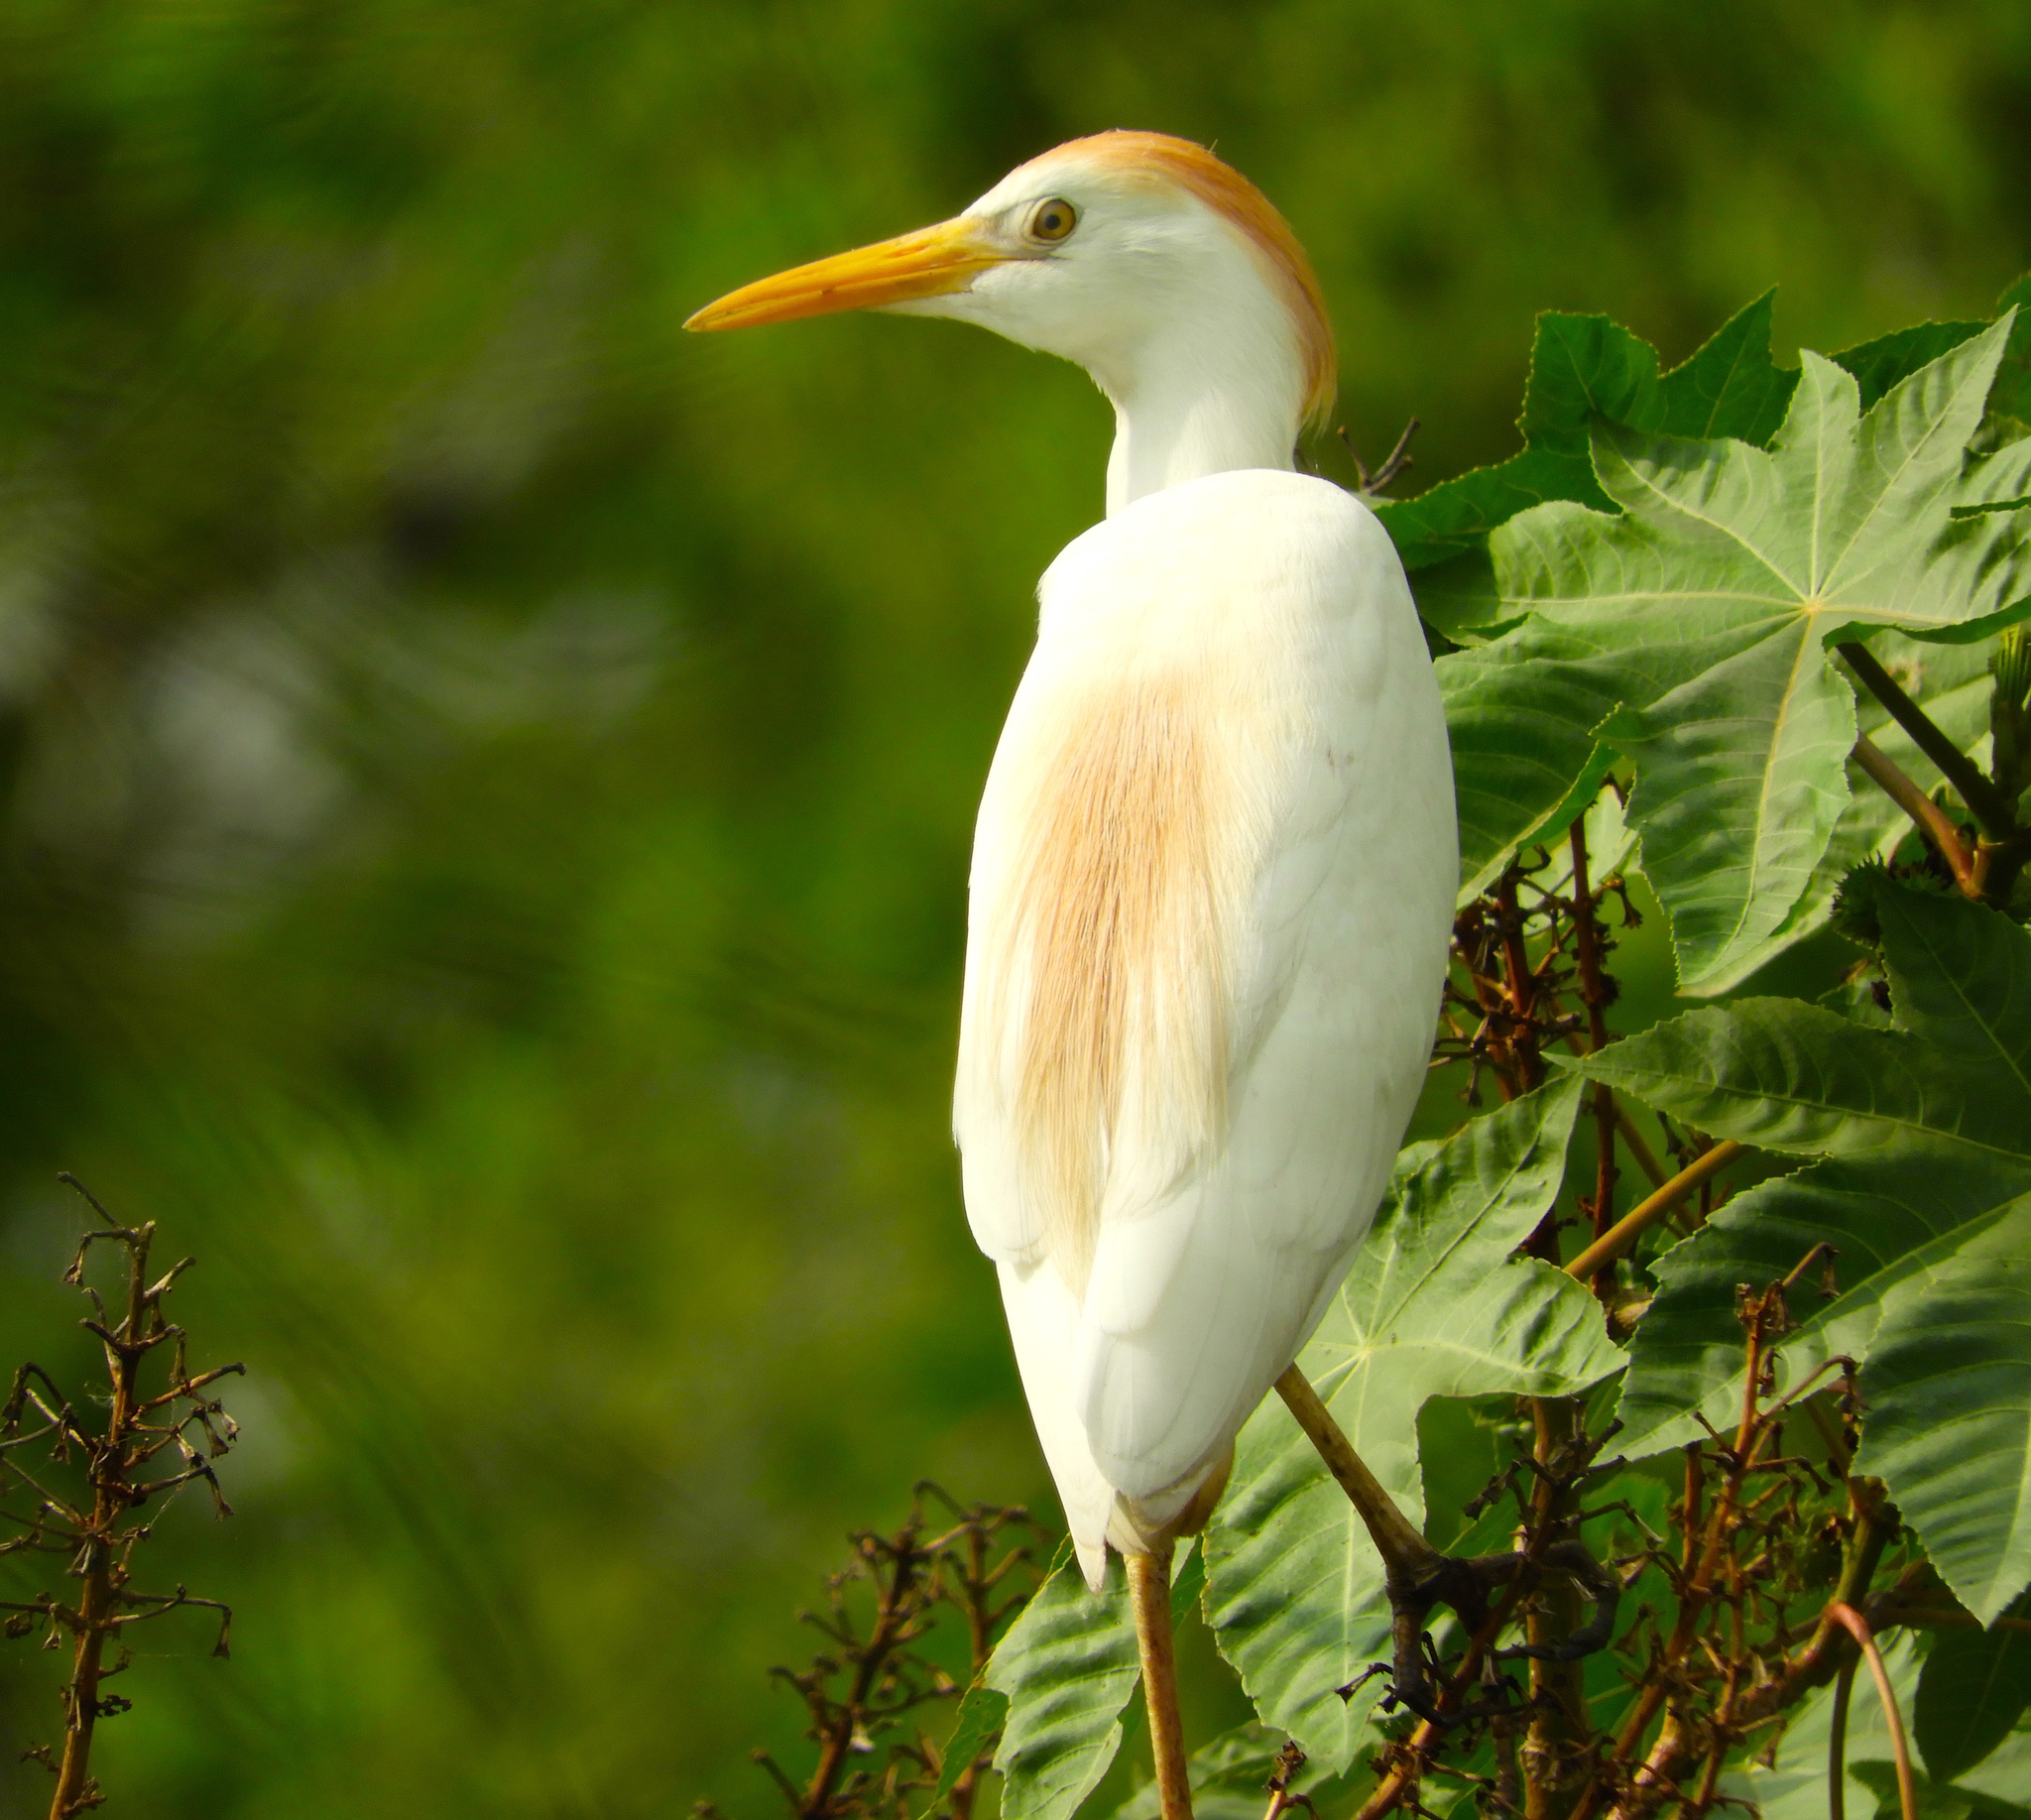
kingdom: Animalia
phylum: Chordata
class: Aves
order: Pelecaniformes
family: Ardeidae
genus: Bubulcus
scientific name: Bubulcus ibis
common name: Cattle egret
